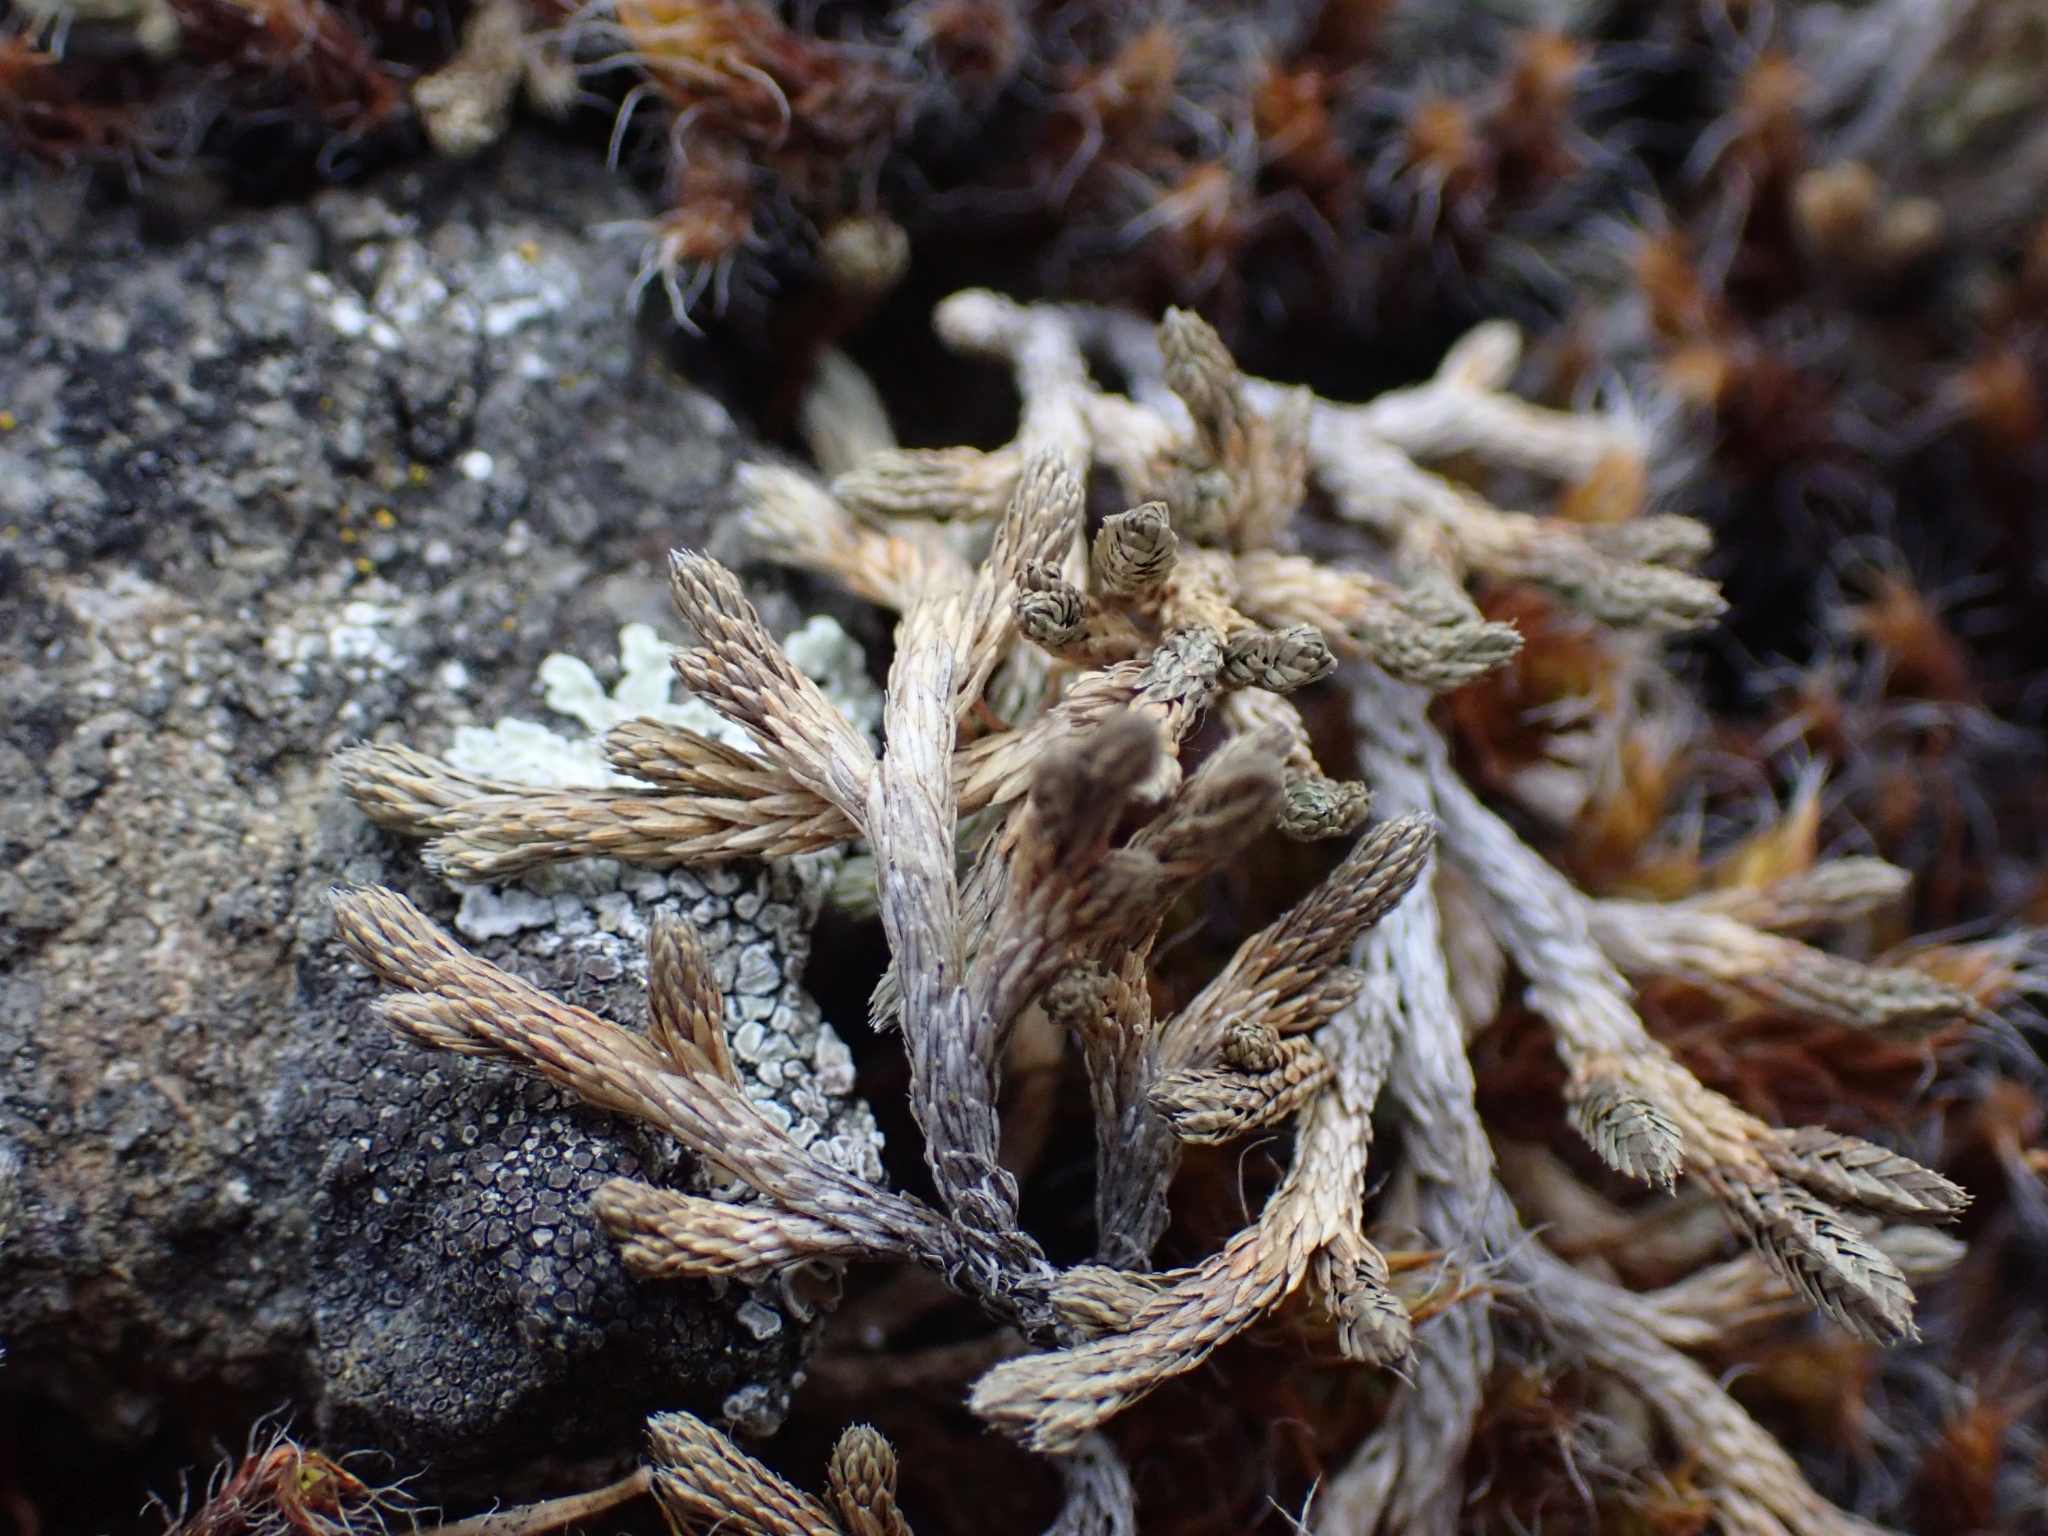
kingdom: Plantae
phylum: Tracheophyta
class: Lycopodiopsida
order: Selaginellales
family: Selaginellaceae
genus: Selaginella
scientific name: Selaginella wallacei
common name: Wallace's selaginella
